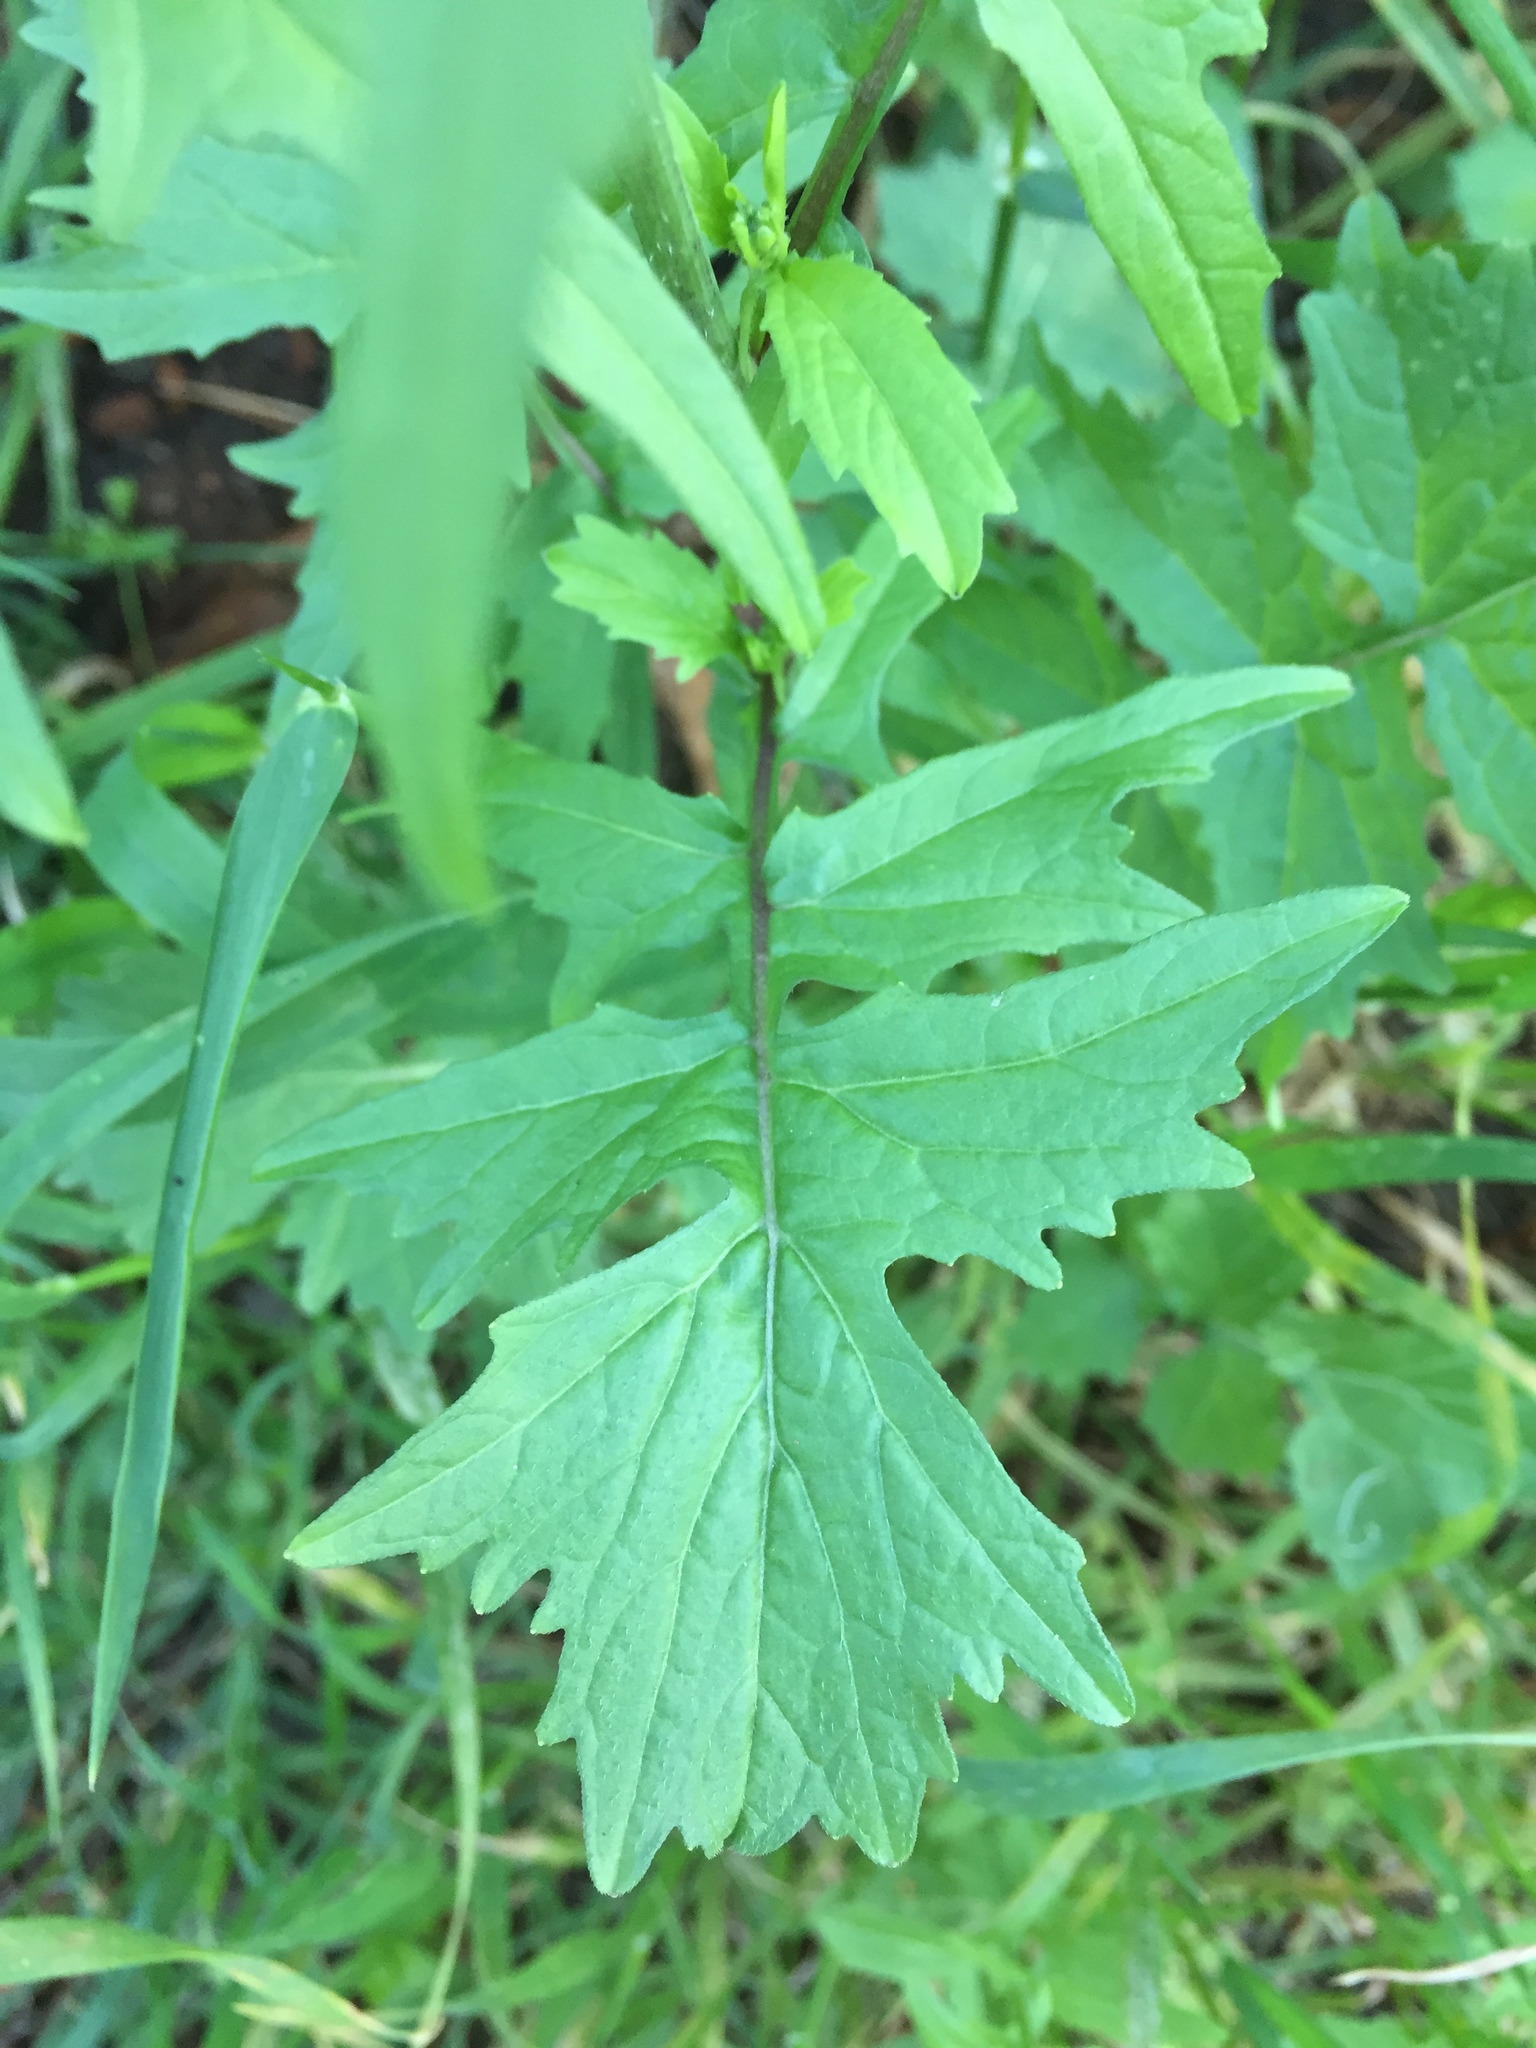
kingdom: Plantae
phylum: Tracheophyta
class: Magnoliopsida
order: Brassicales
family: Brassicaceae
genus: Sisymbrium
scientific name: Sisymbrium officinale
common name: Hedge mustard
